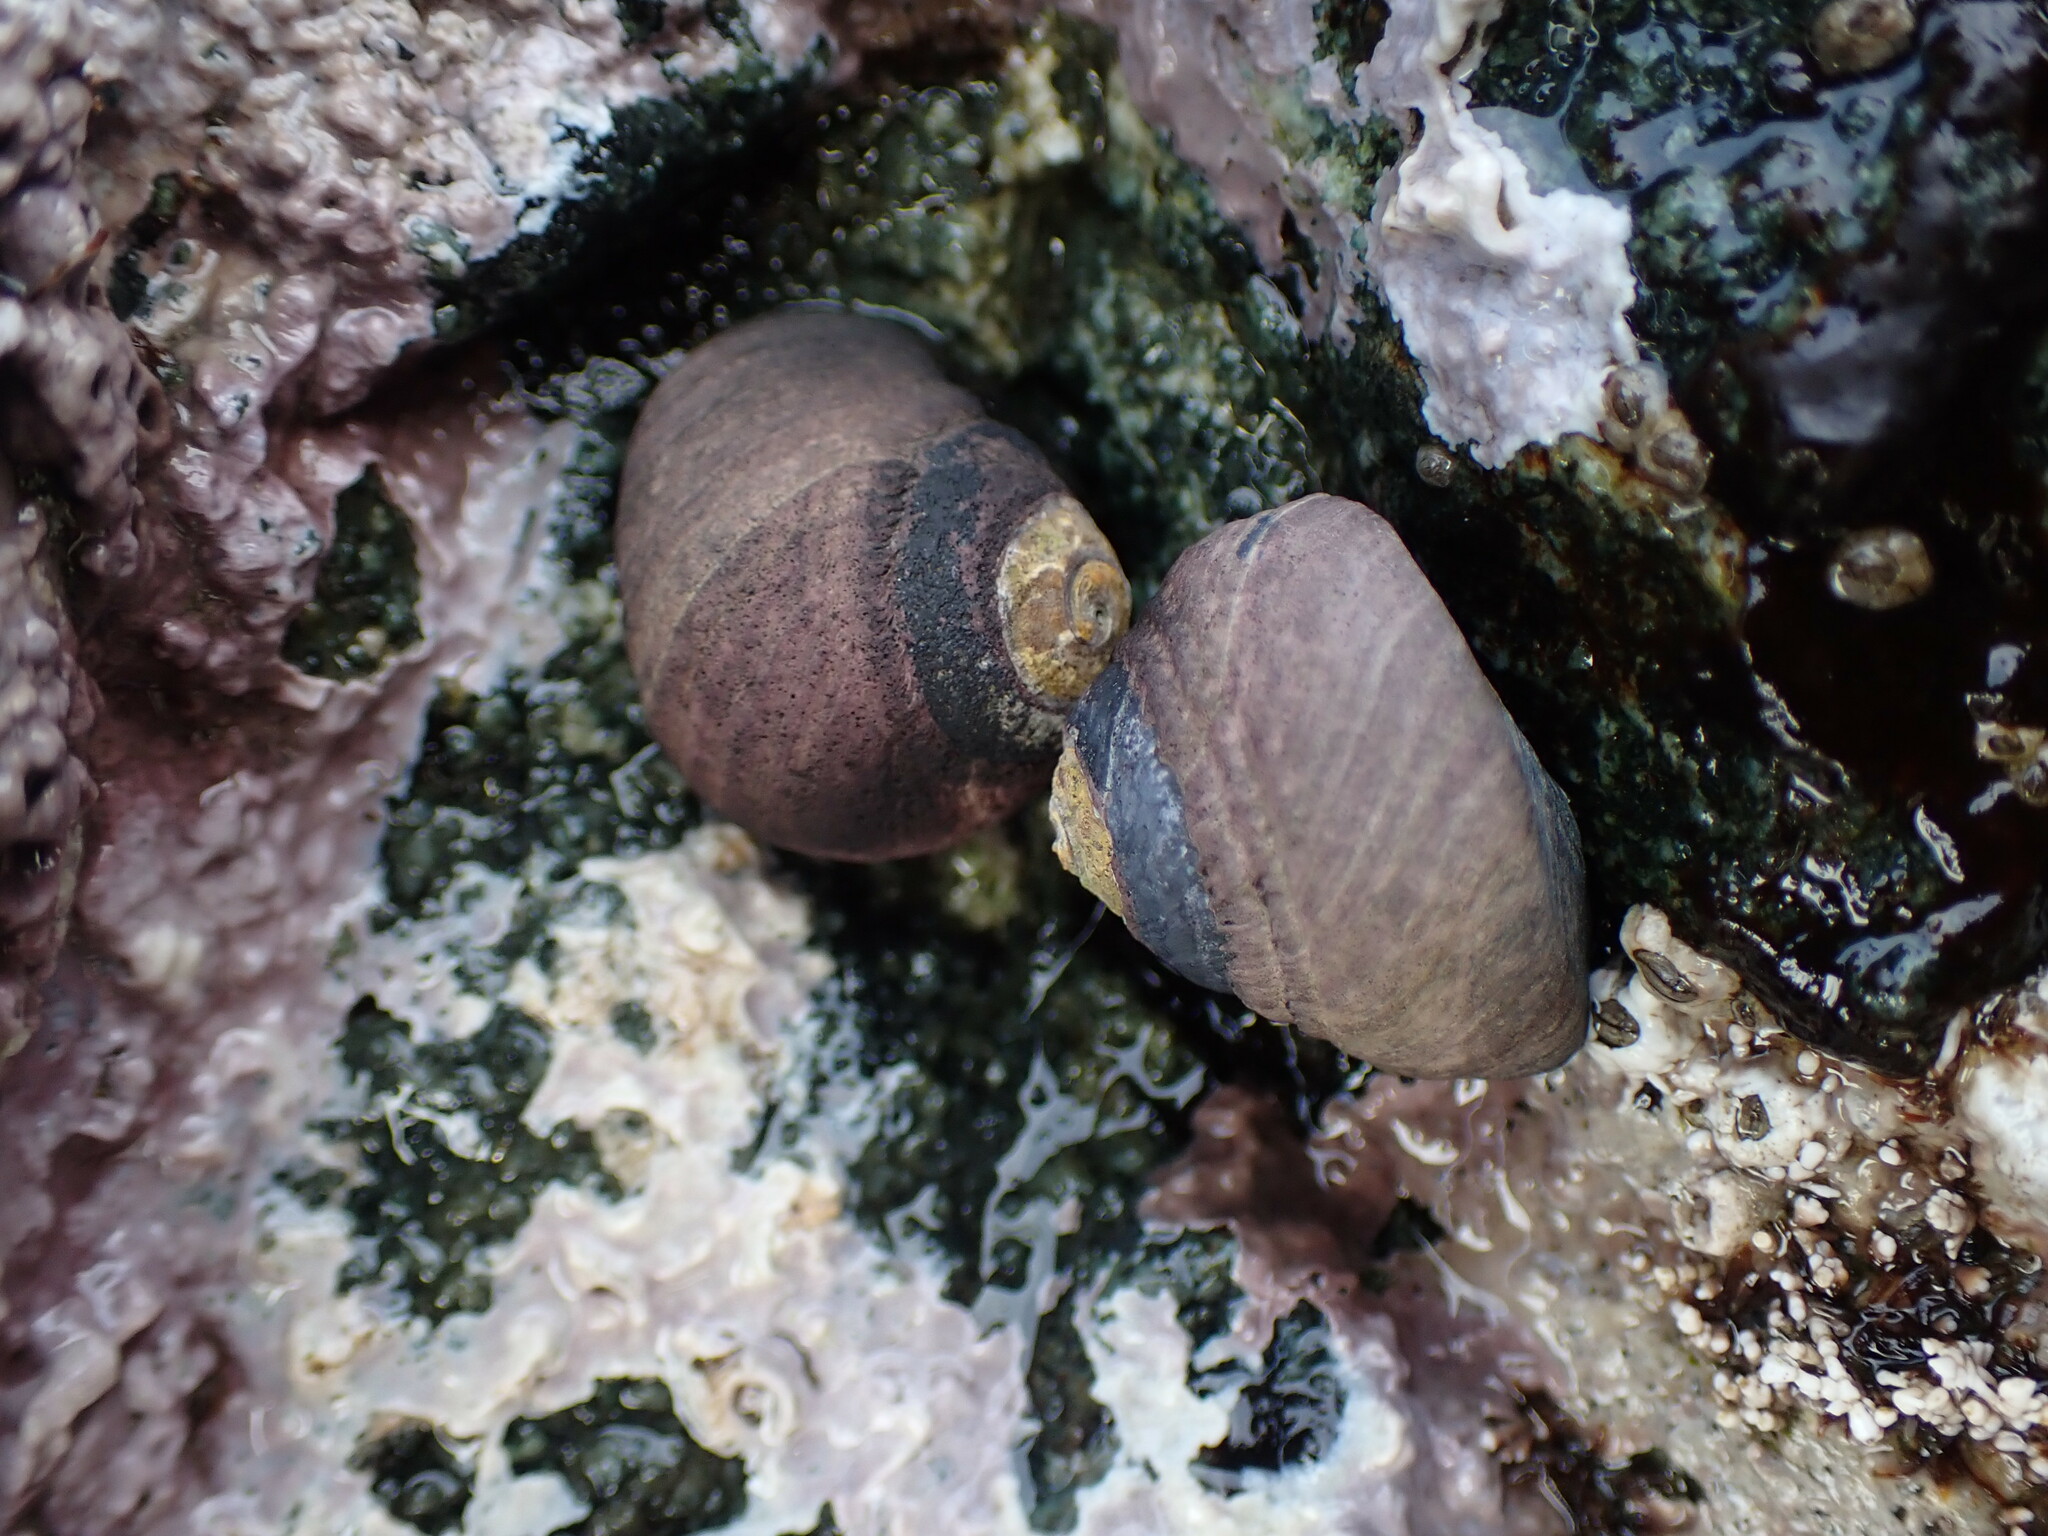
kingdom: Animalia
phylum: Mollusca
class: Gastropoda
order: Trochida
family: Tegulidae
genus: Tegula
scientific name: Tegula funebralis
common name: Black tegula
